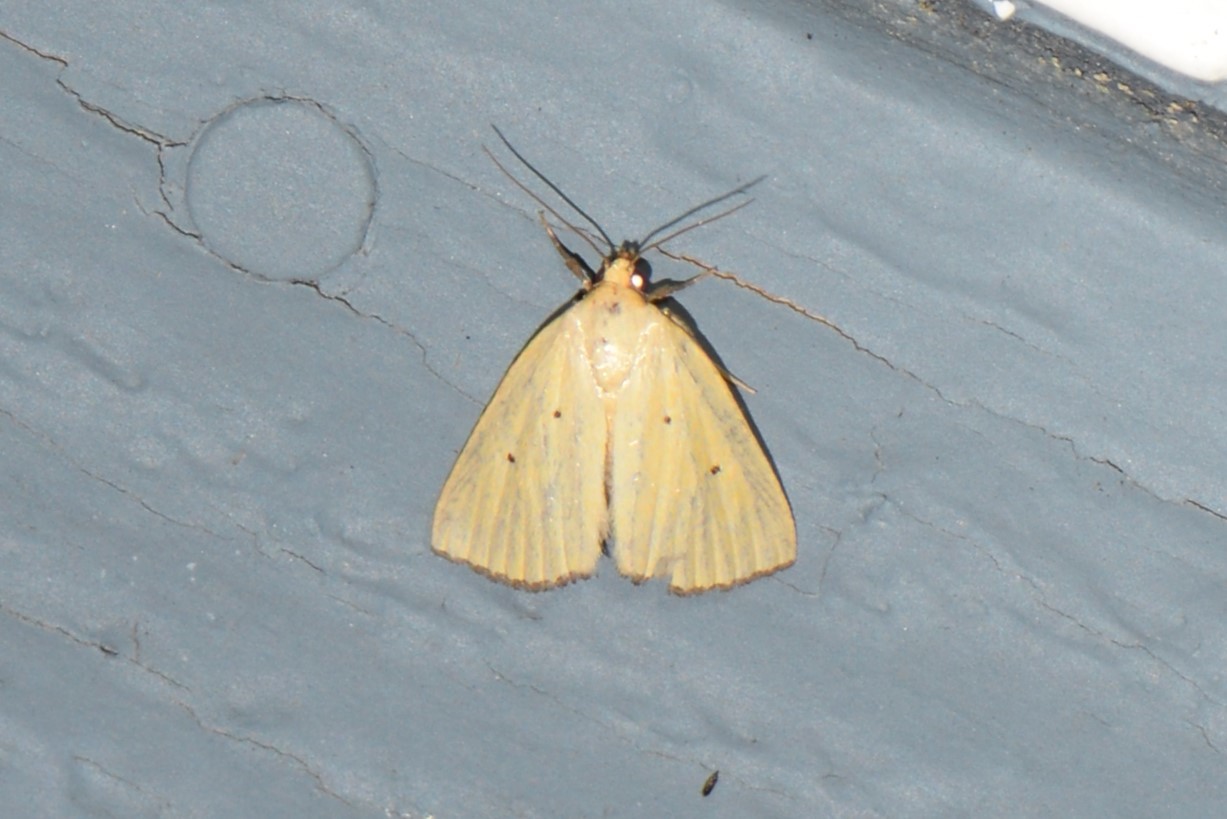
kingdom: Animalia
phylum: Arthropoda
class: Insecta
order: Lepidoptera
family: Noctuidae
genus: Marimatha
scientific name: Marimatha nigrofimbria
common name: Black-bordered lemon moth
